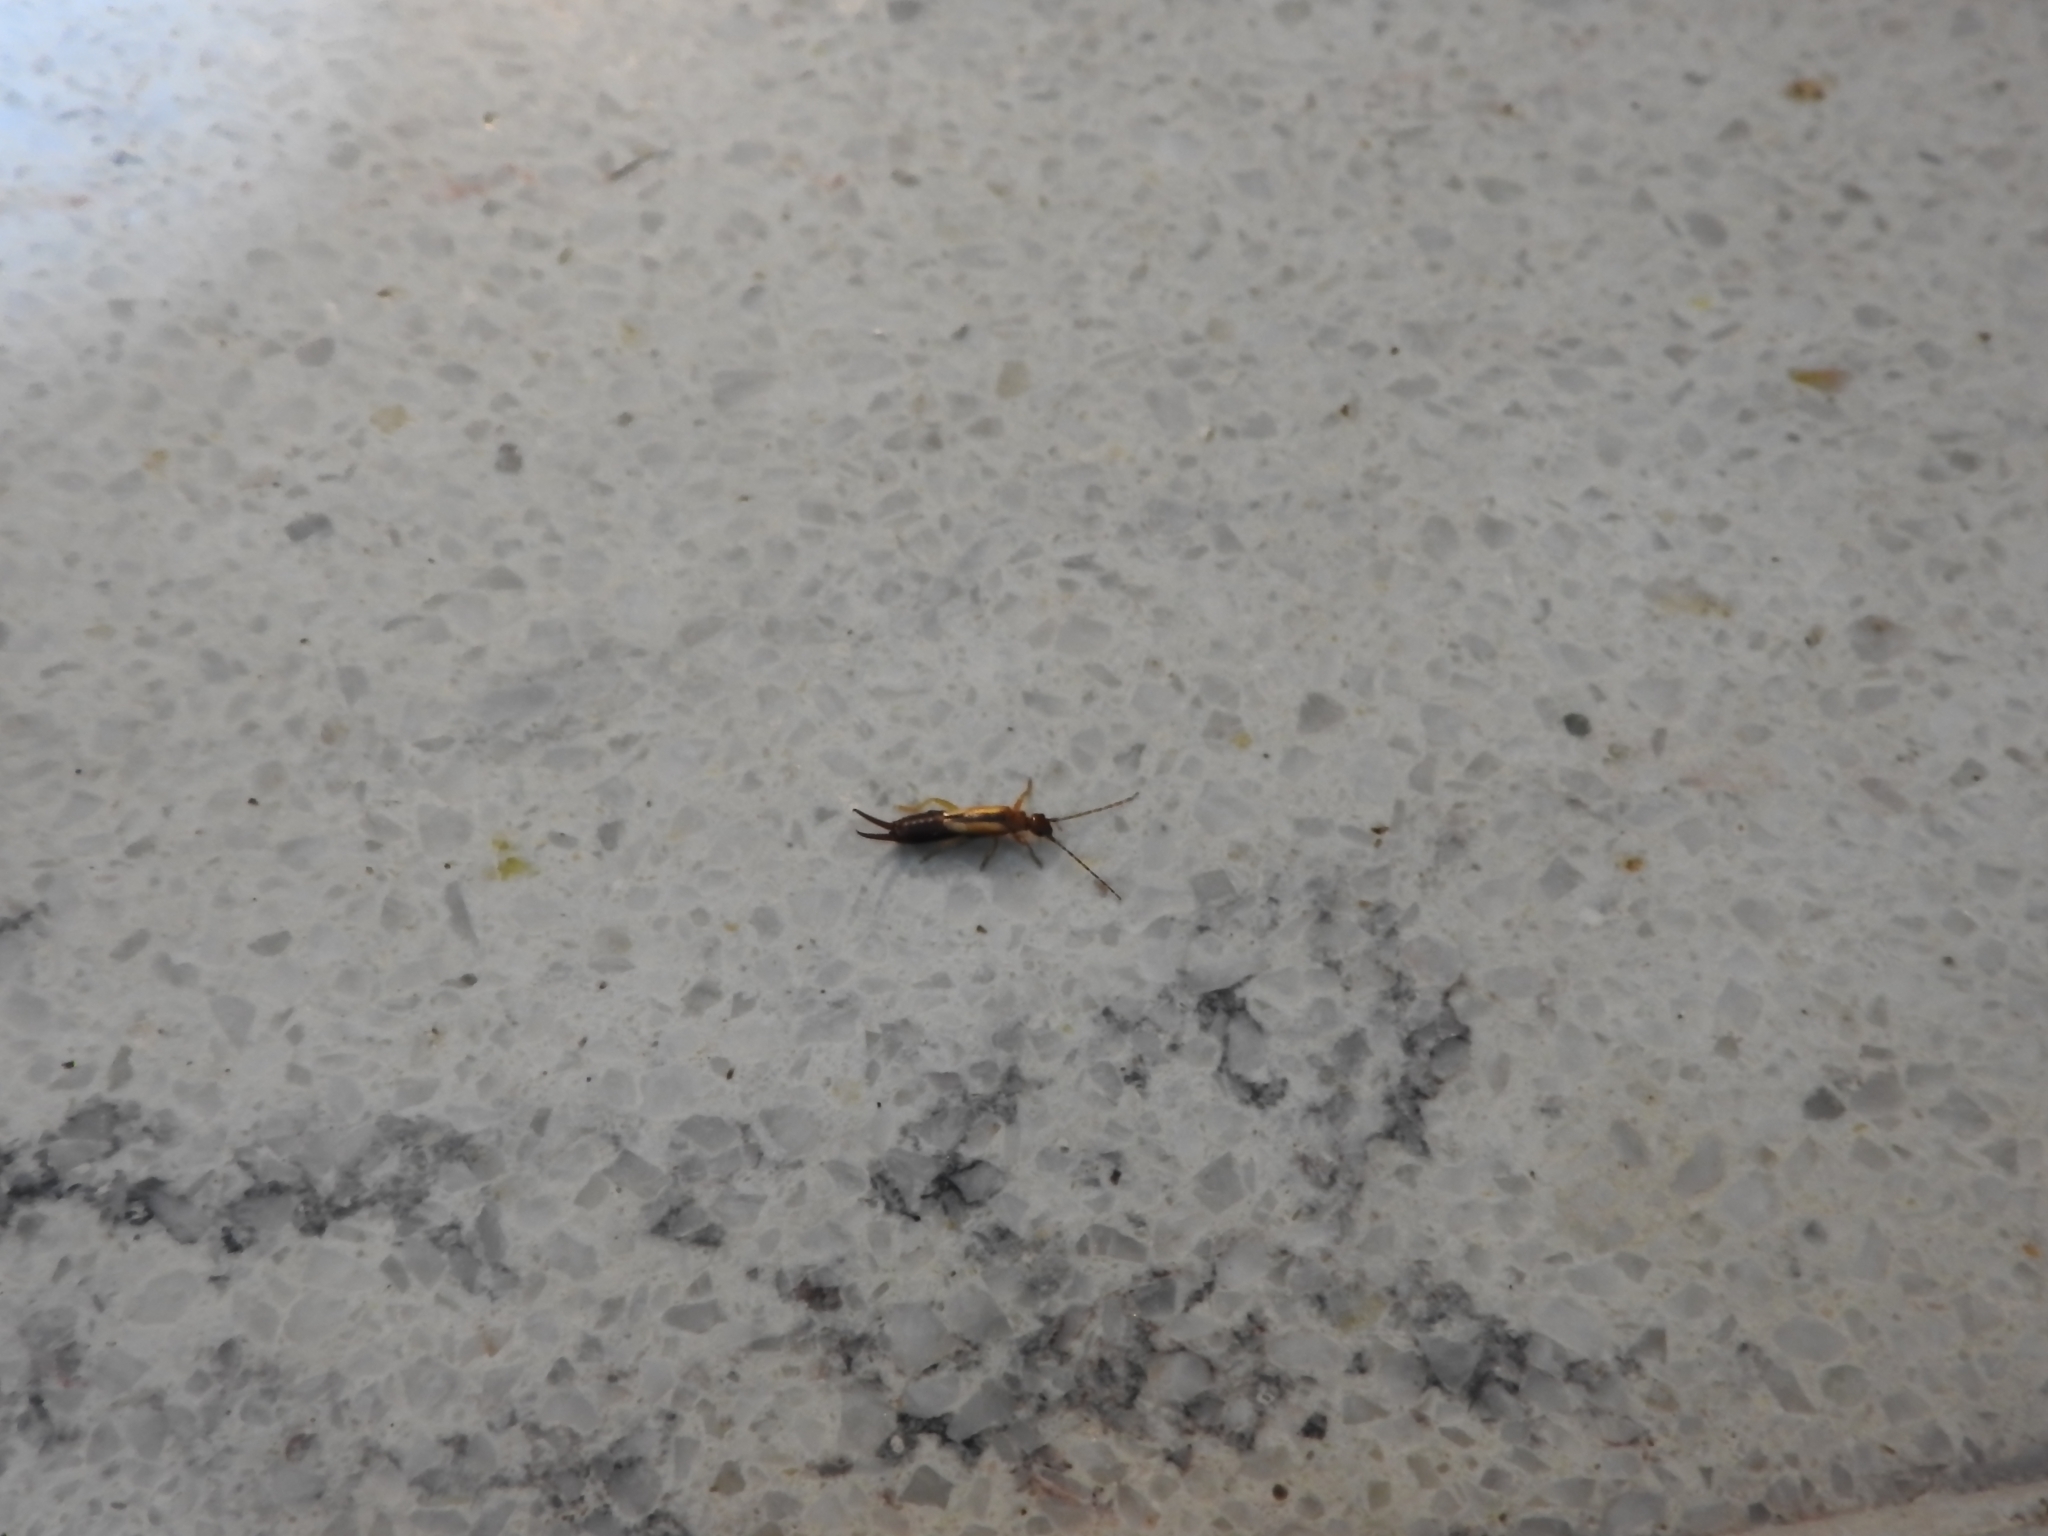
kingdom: Animalia
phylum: Arthropoda
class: Insecta
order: Dermaptera
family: Forficulidae
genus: Doru
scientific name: Doru
